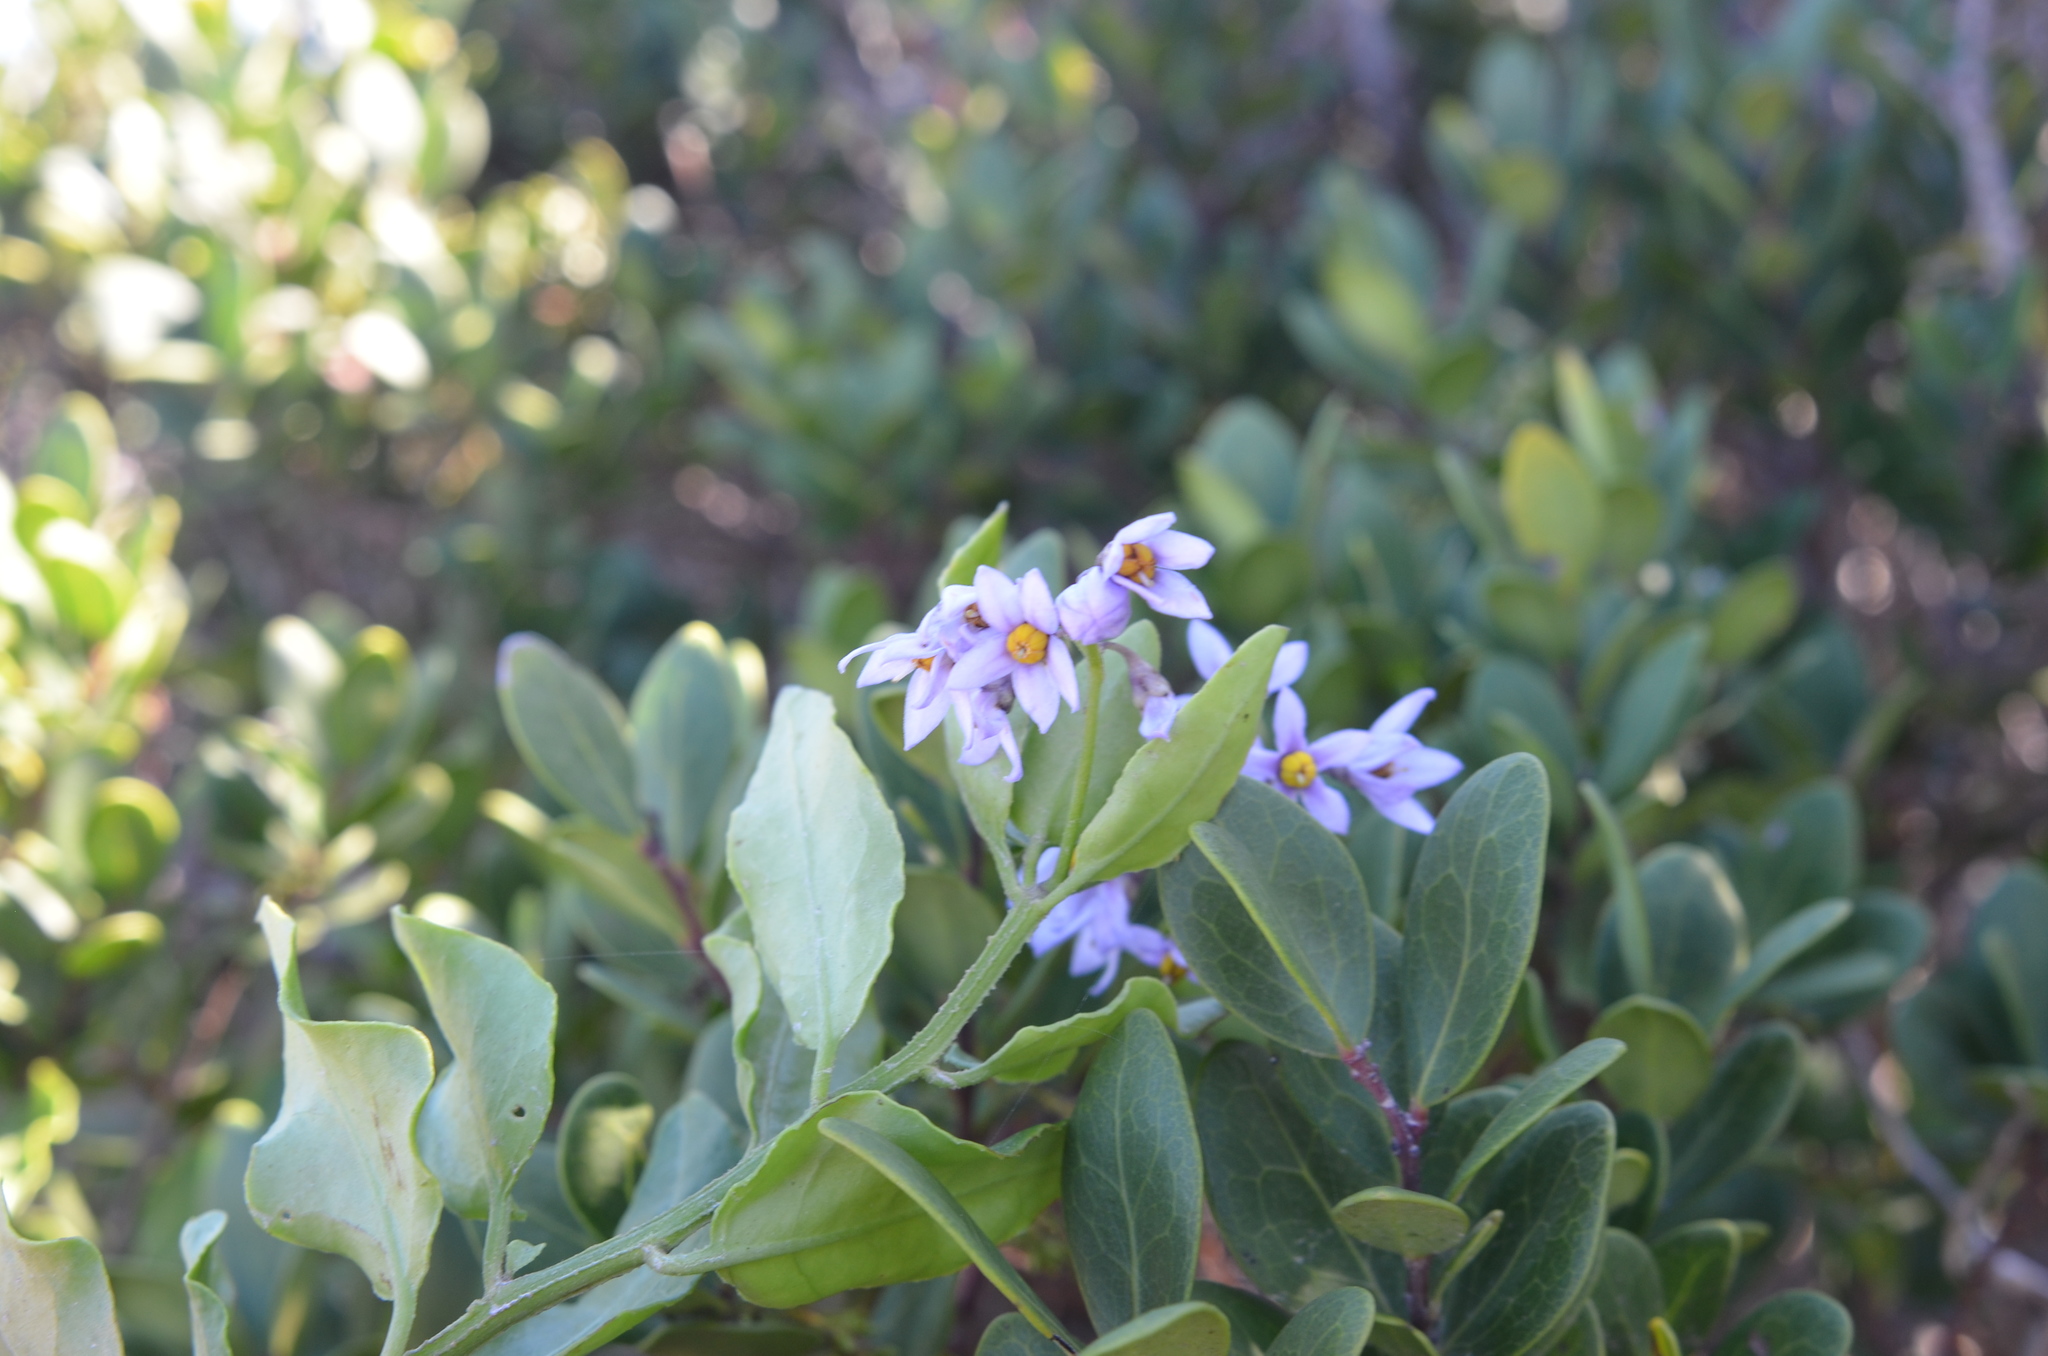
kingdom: Plantae
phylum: Tracheophyta
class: Magnoliopsida
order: Solanales
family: Solanaceae
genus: Solanum
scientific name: Solanum africanum
